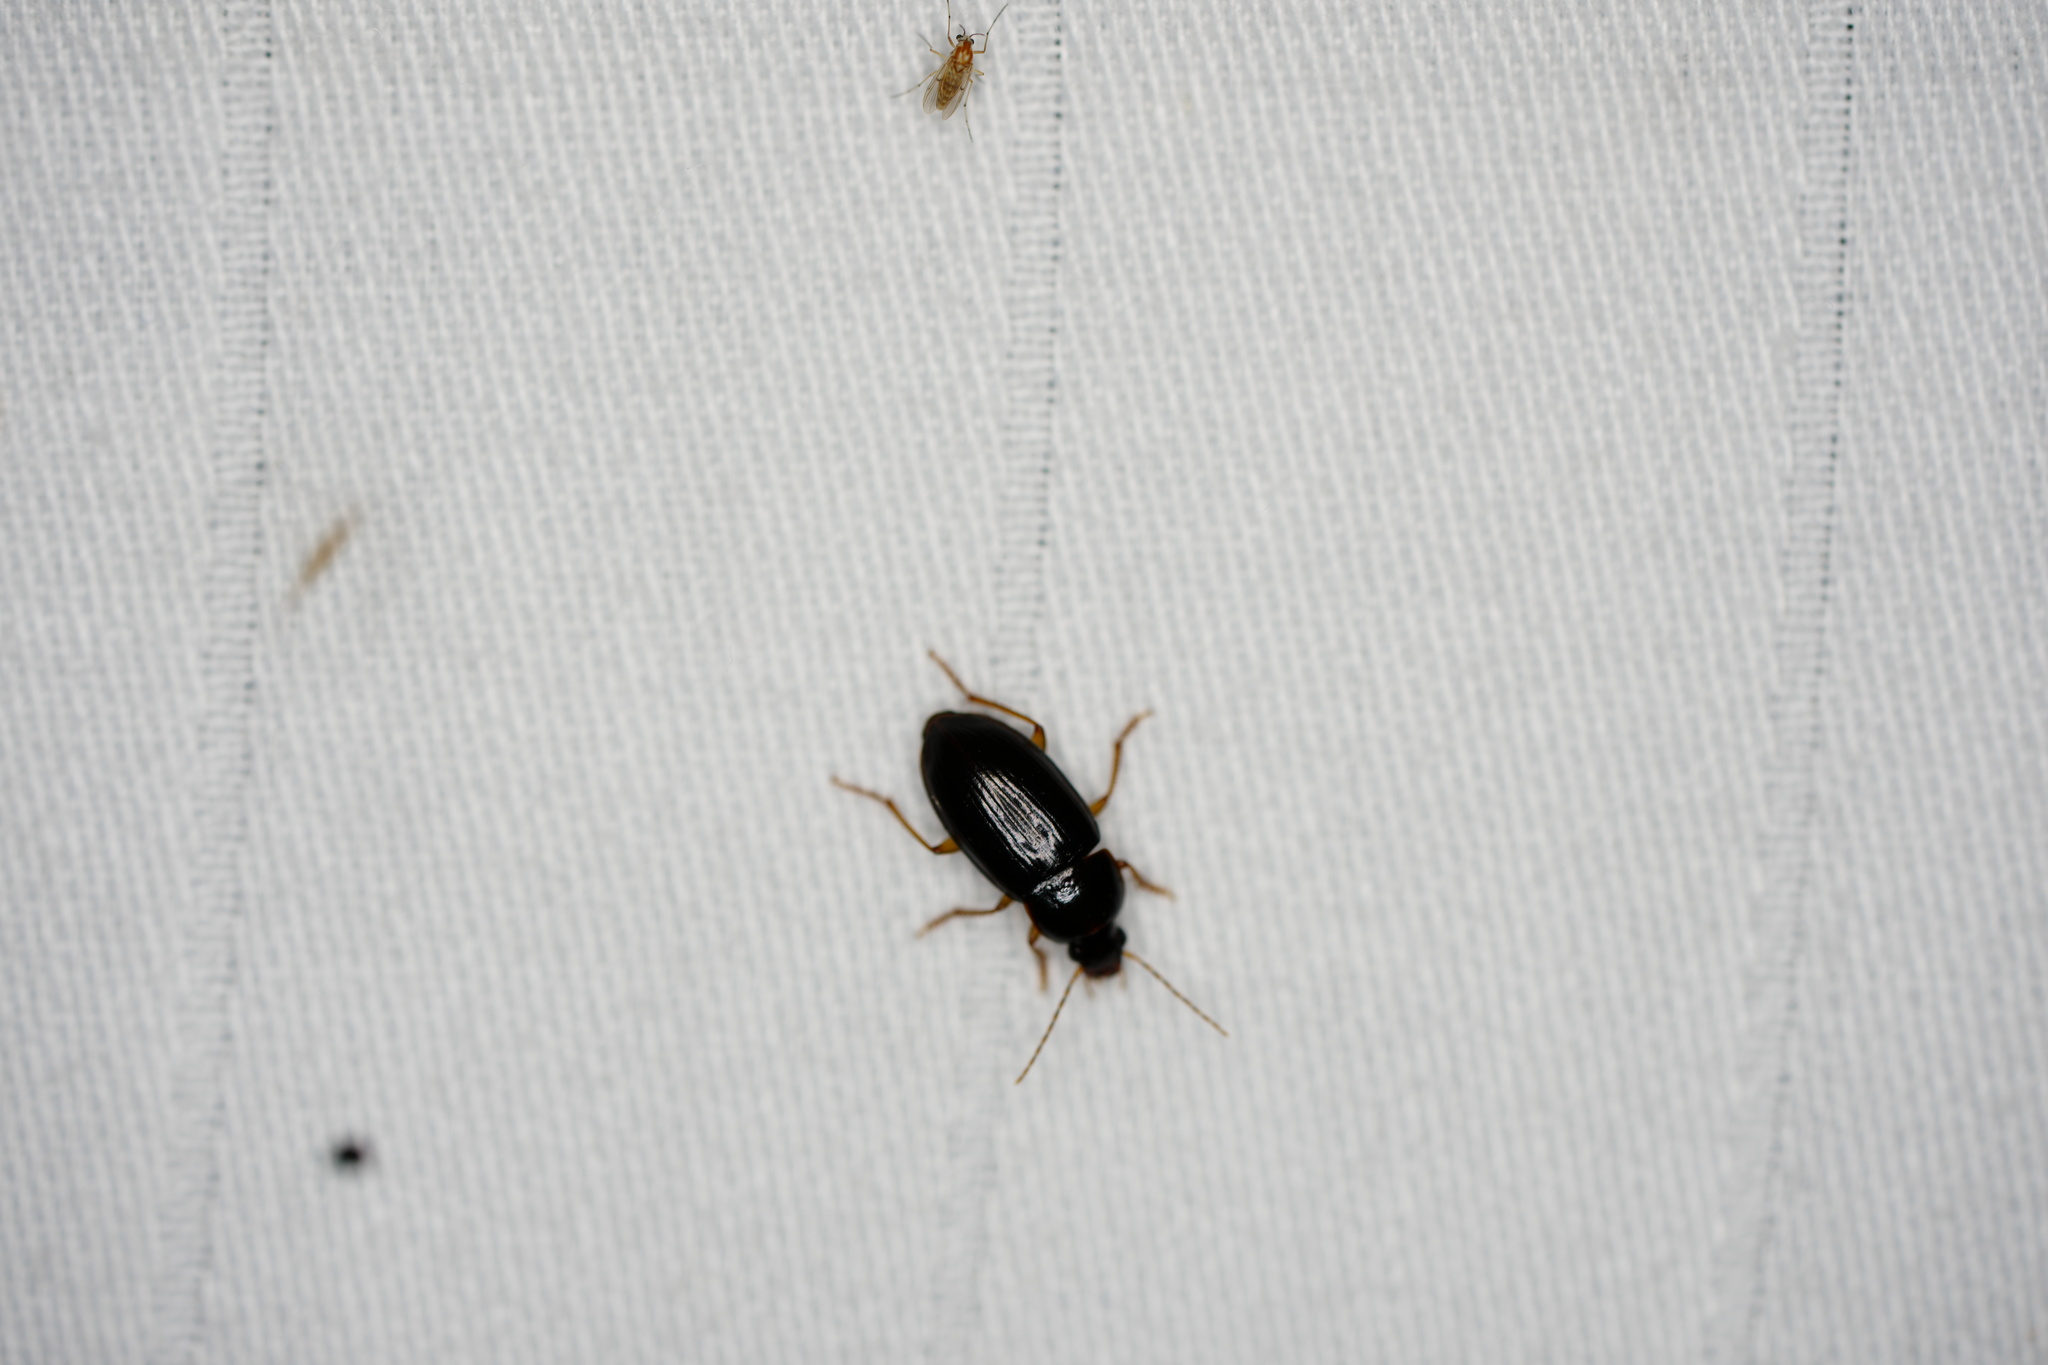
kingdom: Animalia
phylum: Arthropoda
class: Insecta
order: Coleoptera
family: Carabidae
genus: Notiobia
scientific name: Notiobia terminata
